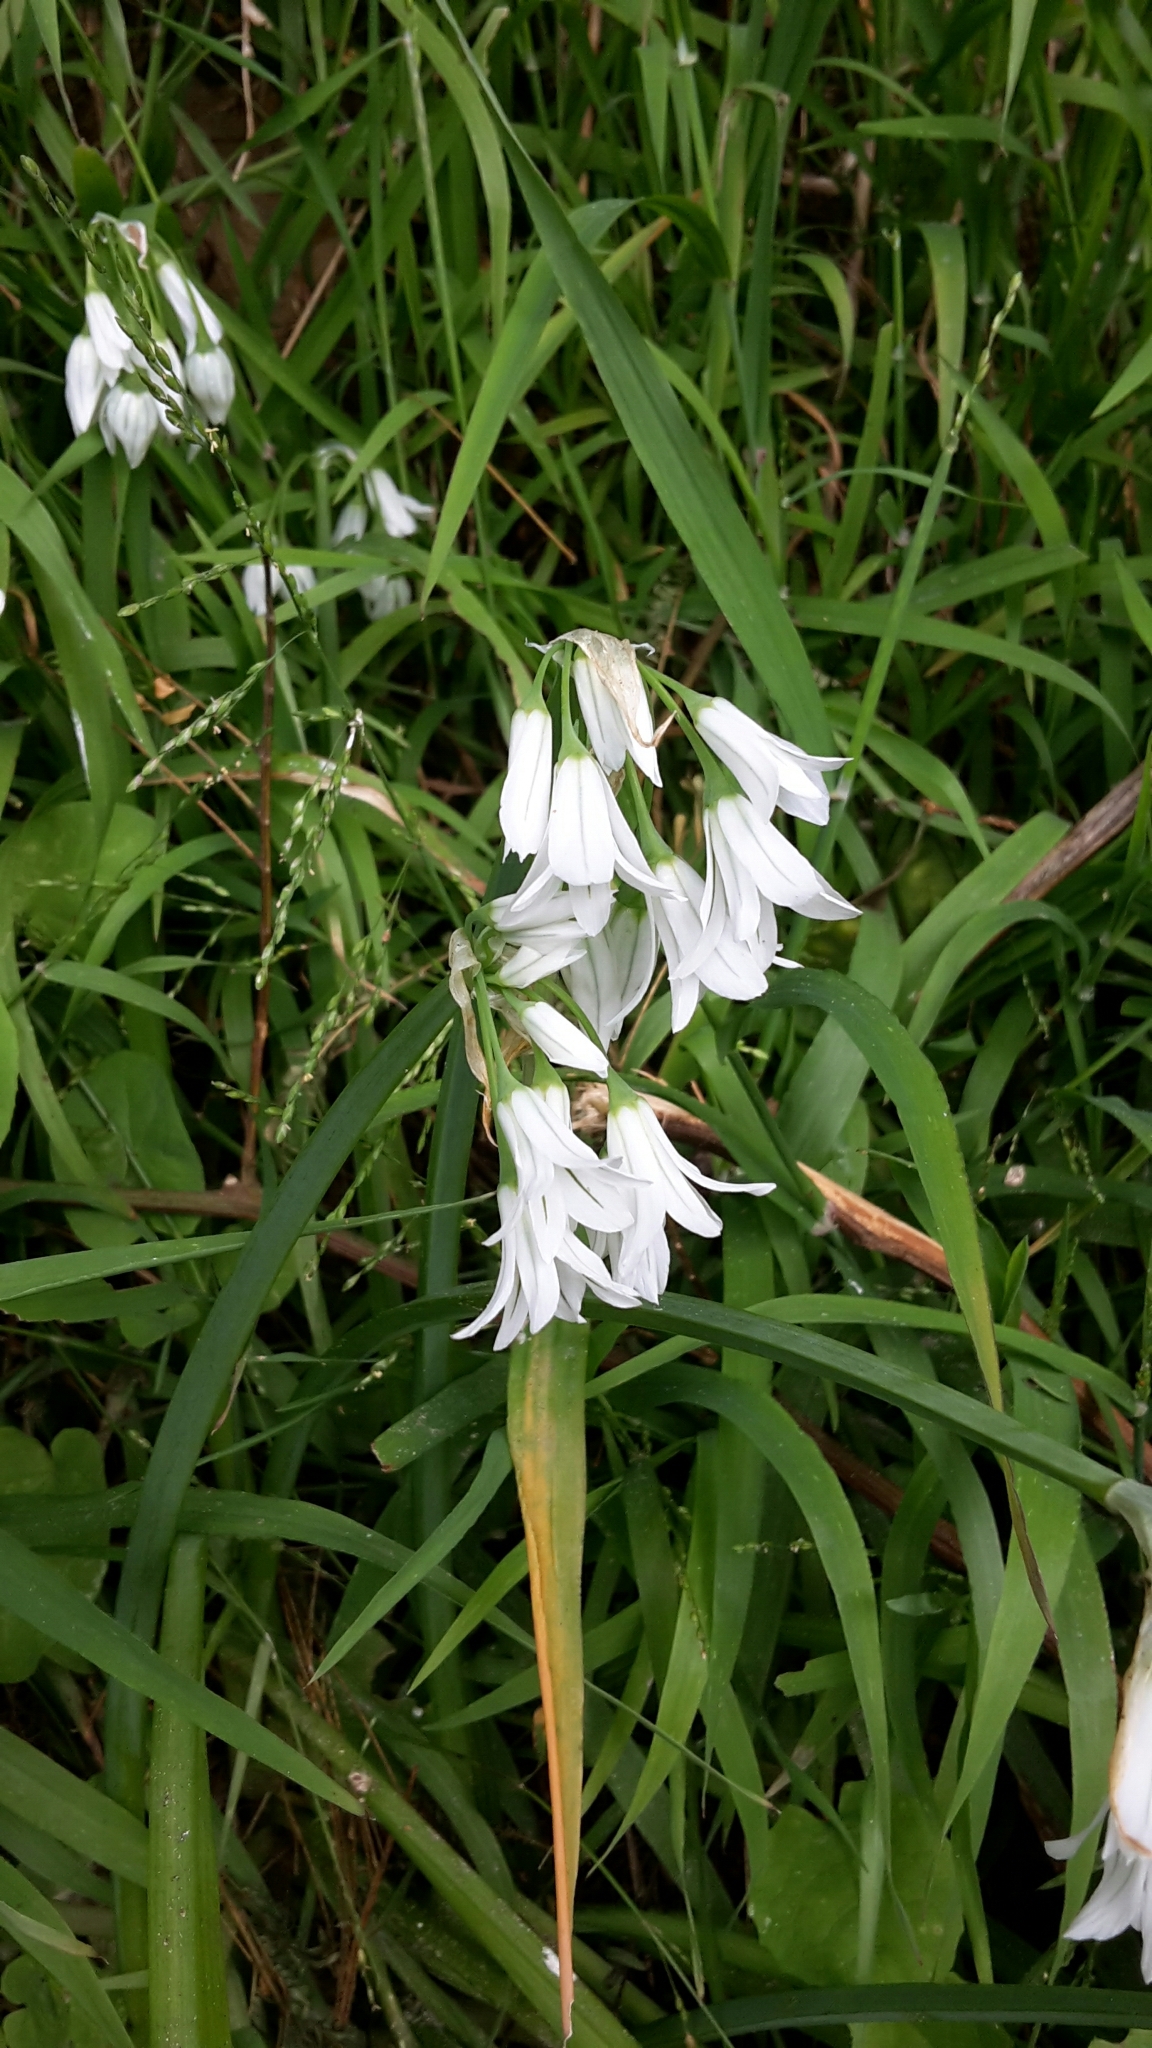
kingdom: Plantae
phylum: Tracheophyta
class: Liliopsida
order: Asparagales
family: Amaryllidaceae
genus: Allium
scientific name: Allium triquetrum
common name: Three-cornered garlic
